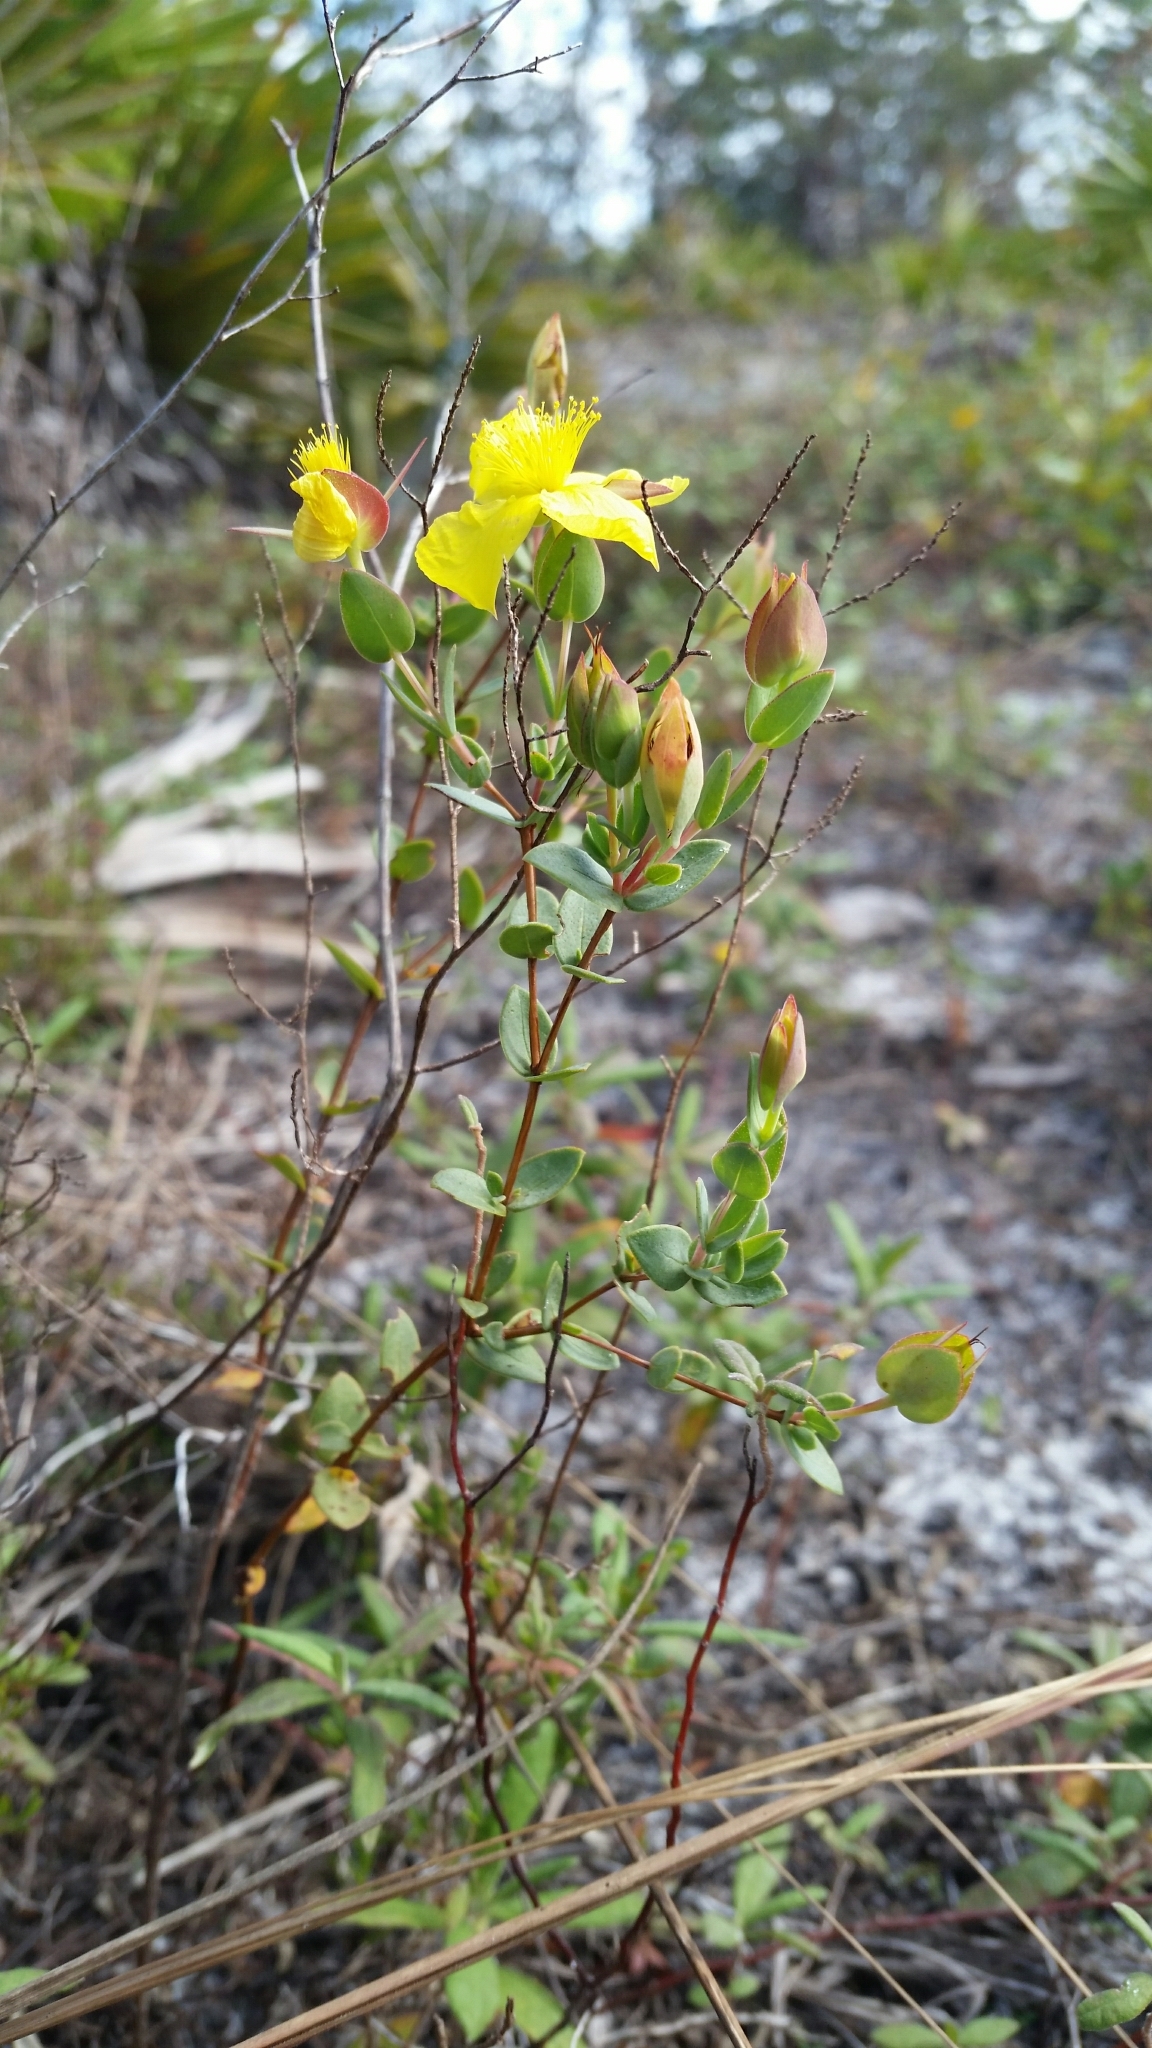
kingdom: Plantae
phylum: Tracheophyta
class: Magnoliopsida
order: Malpighiales
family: Hypericaceae
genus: Hypericum
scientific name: Hypericum tetrapetalum
